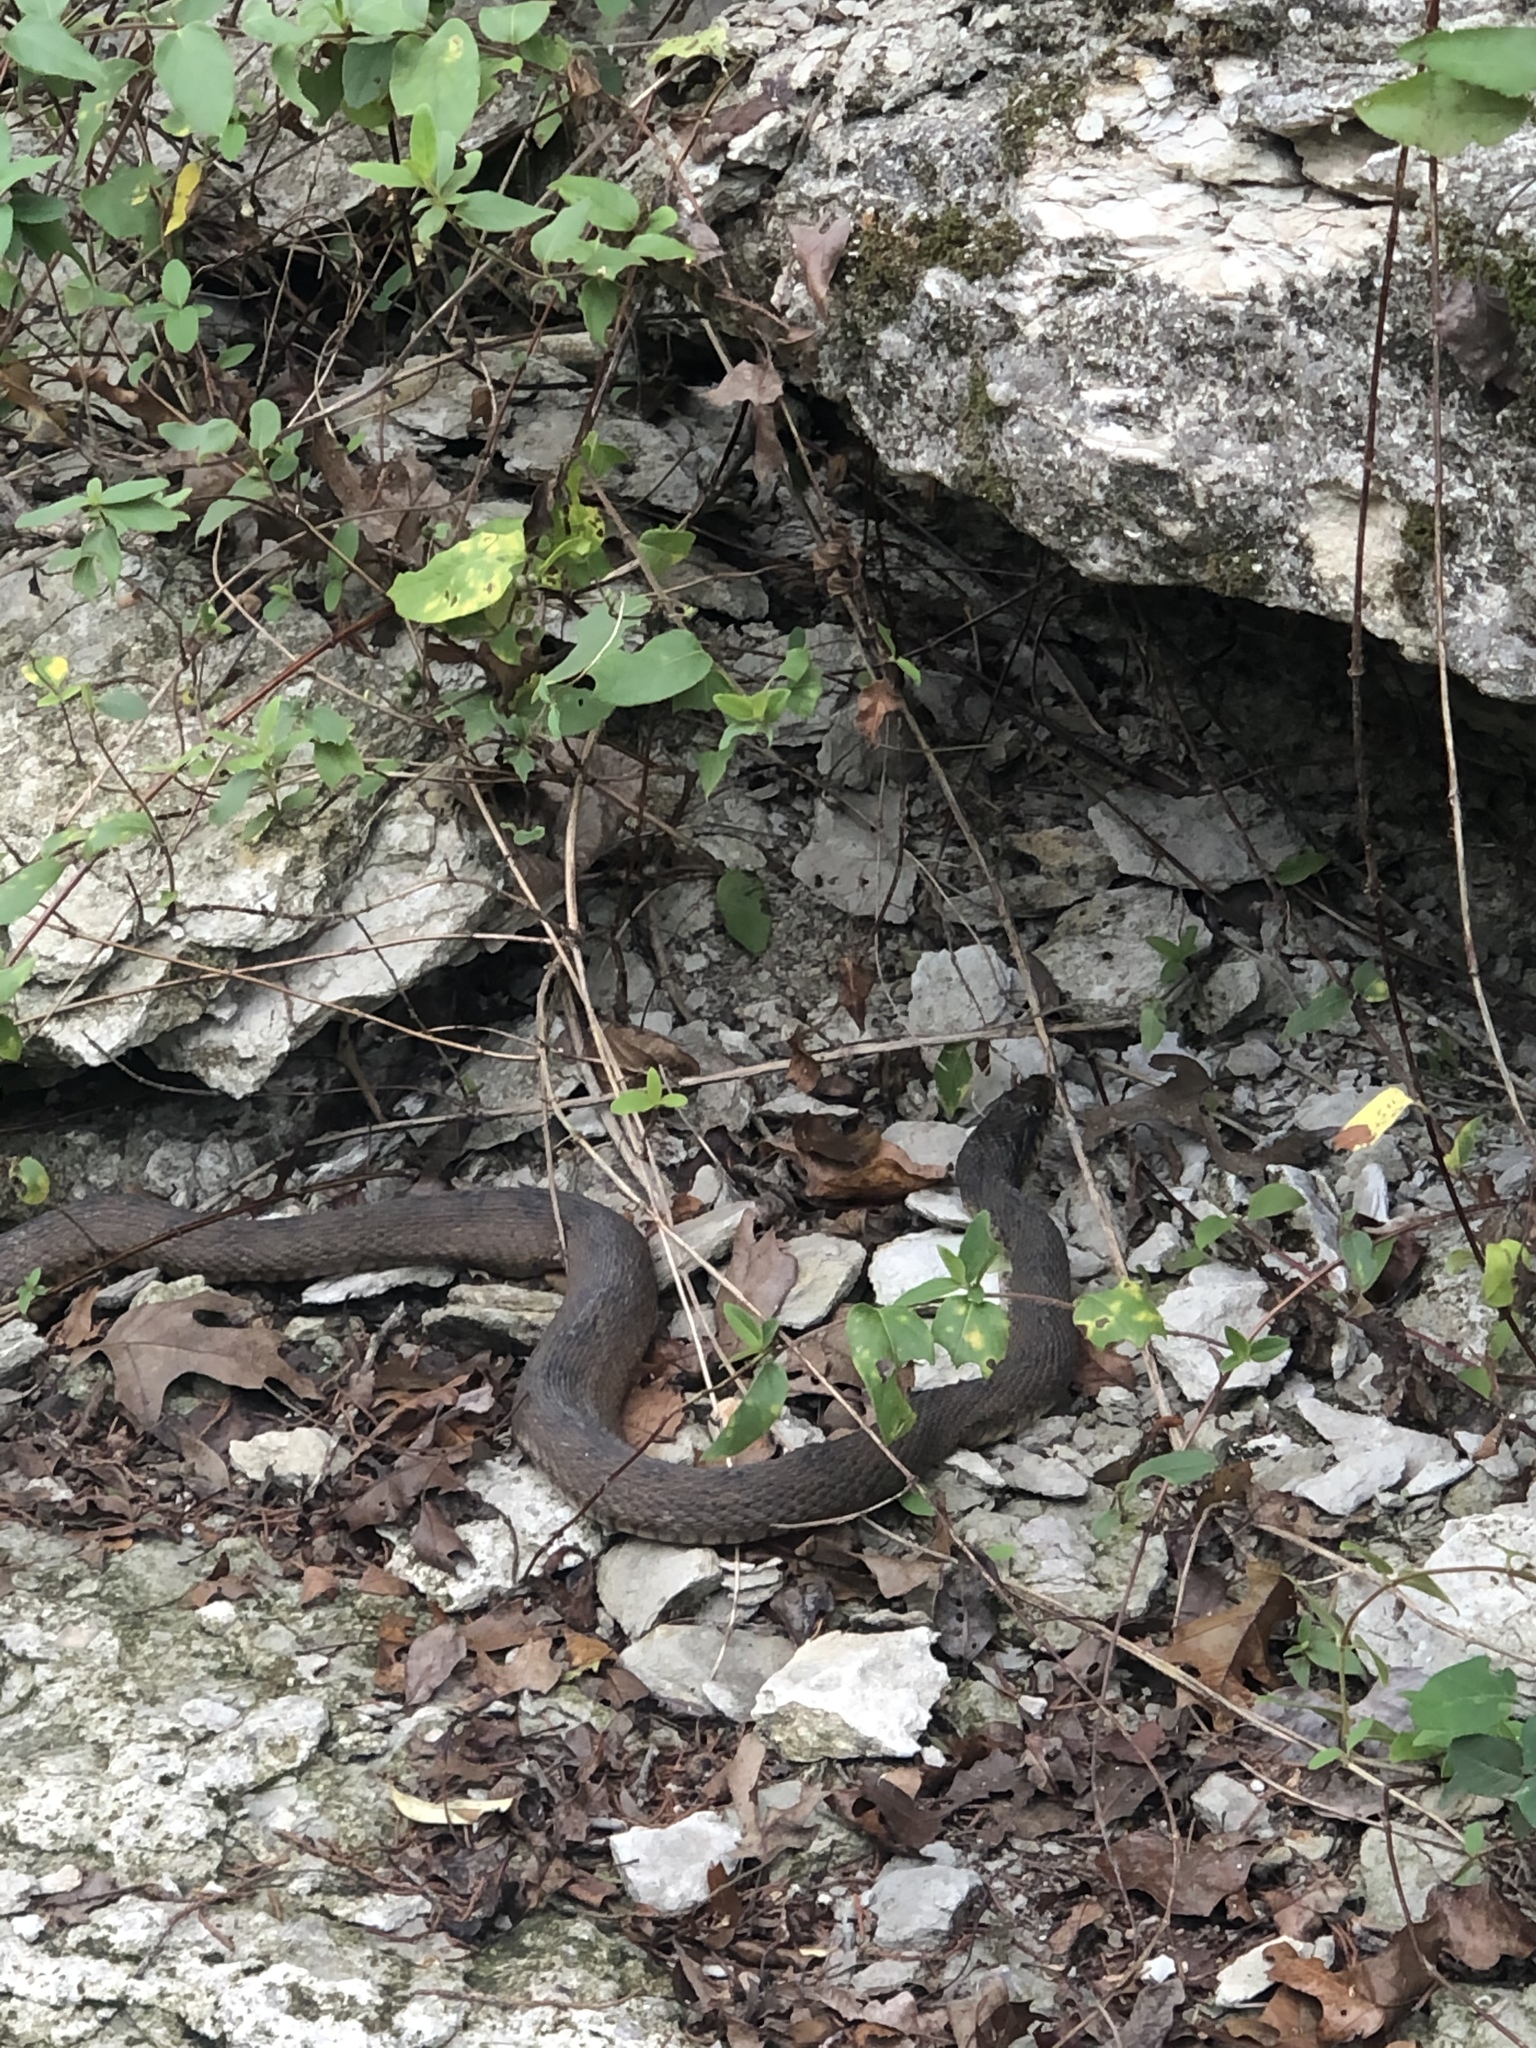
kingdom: Animalia
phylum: Chordata
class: Squamata
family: Colubridae
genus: Nerodia
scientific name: Nerodia erythrogaster
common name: Plainbelly water snake
